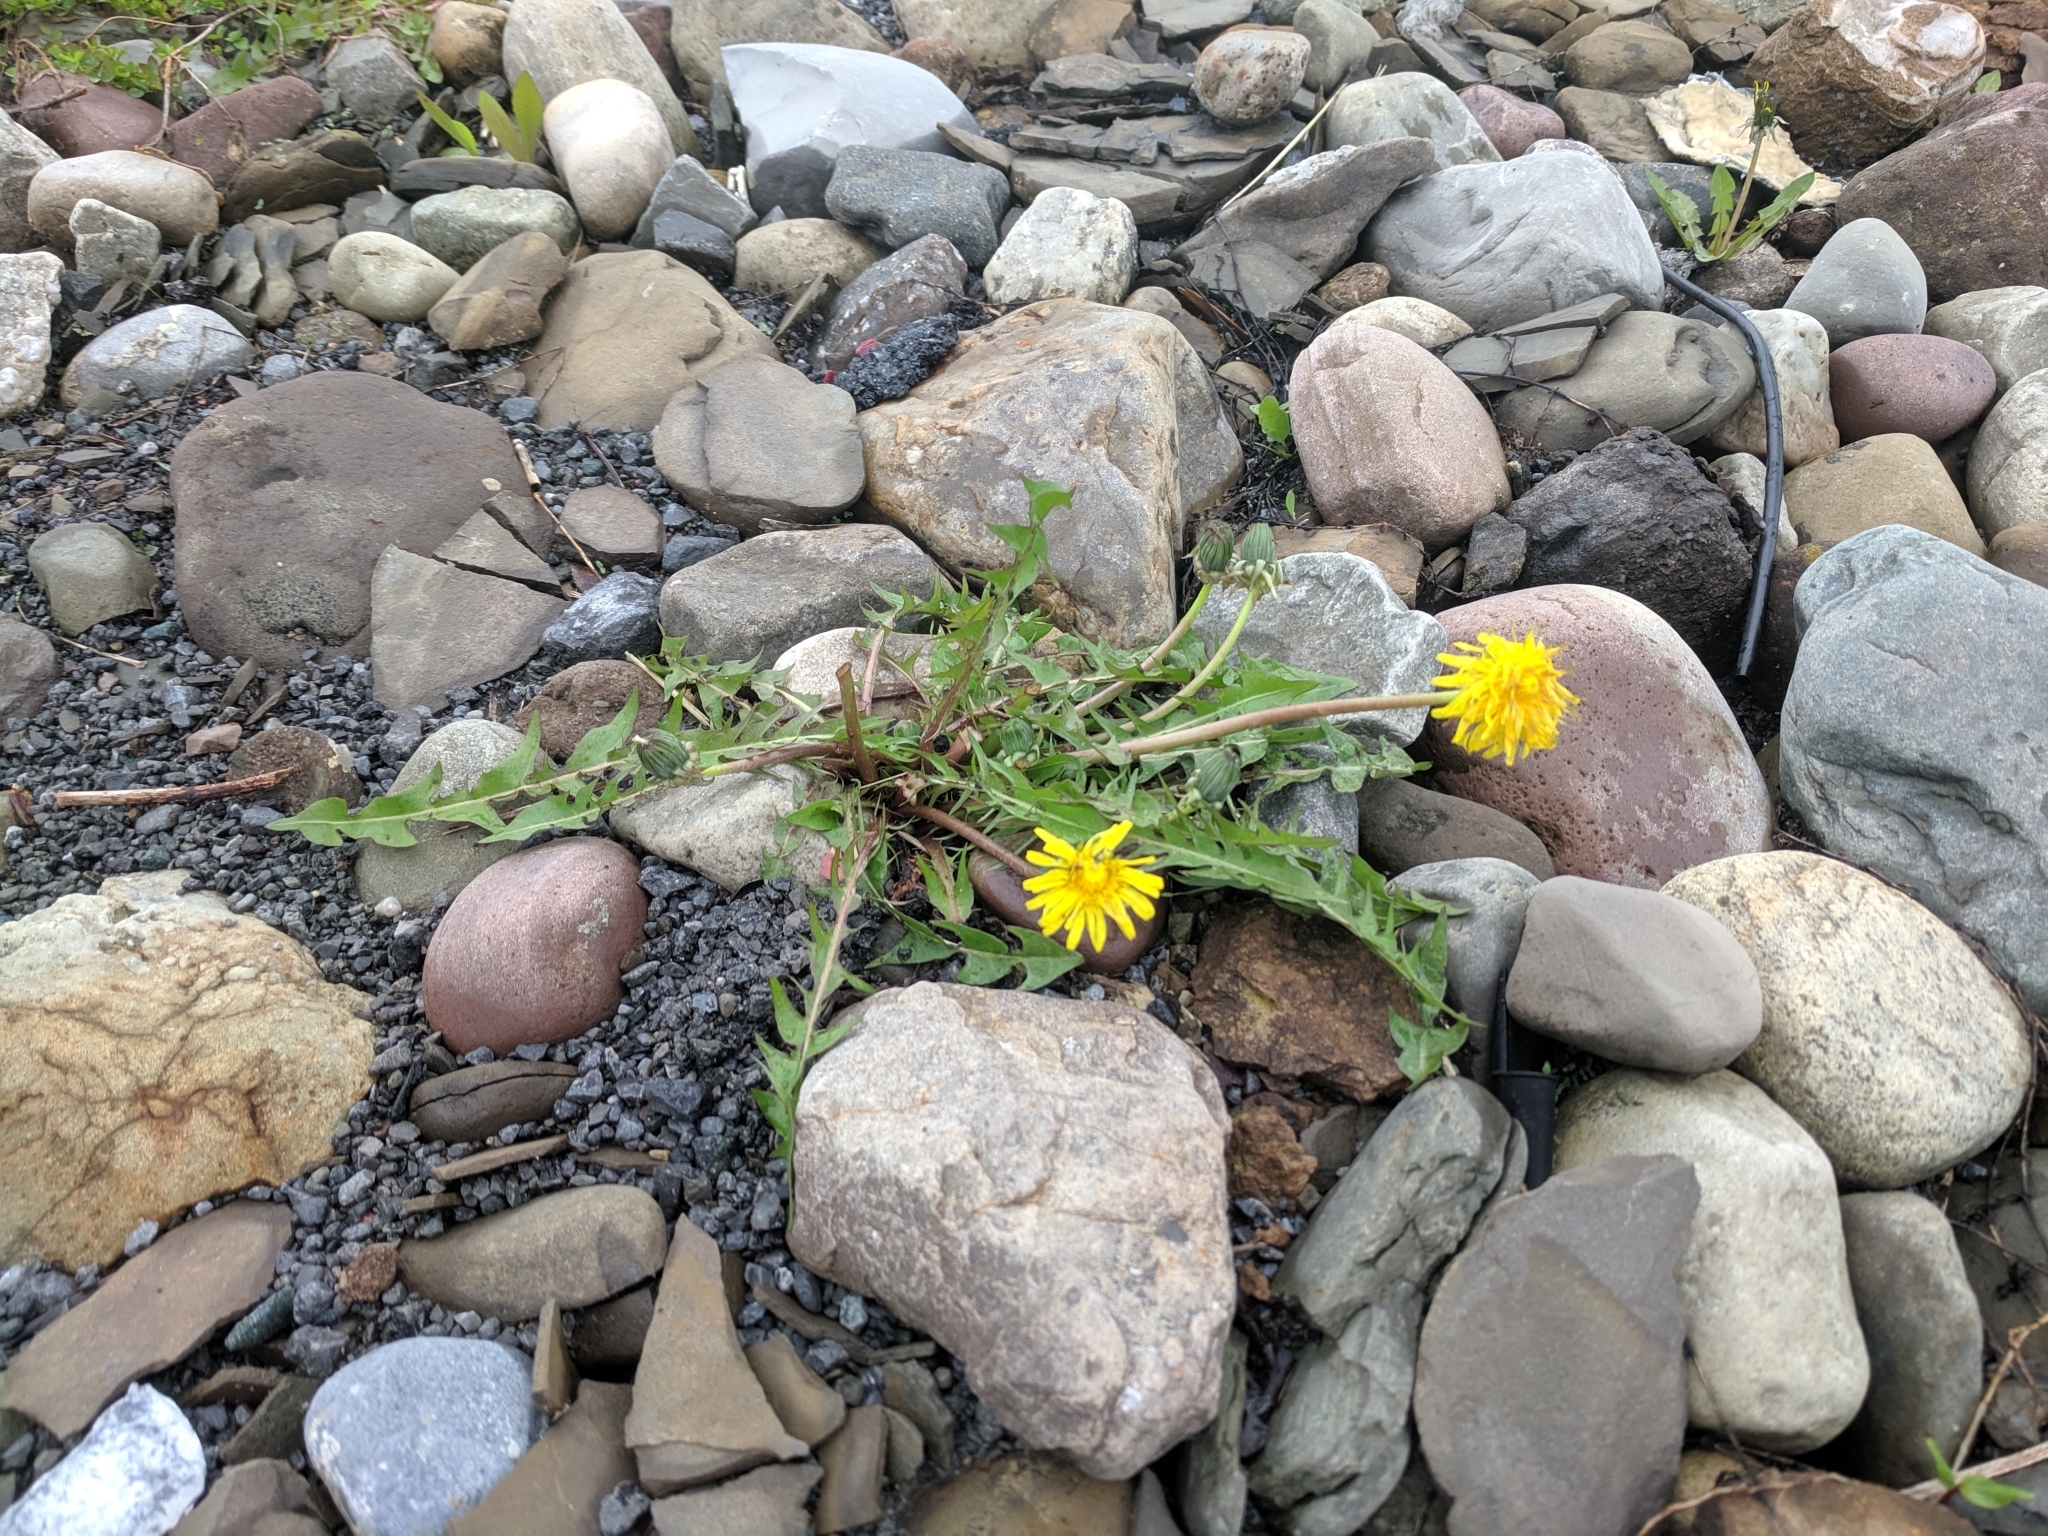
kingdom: Plantae
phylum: Tracheophyta
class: Magnoliopsida
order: Asterales
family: Asteraceae
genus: Taraxacum
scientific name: Taraxacum officinale
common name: Common dandelion
